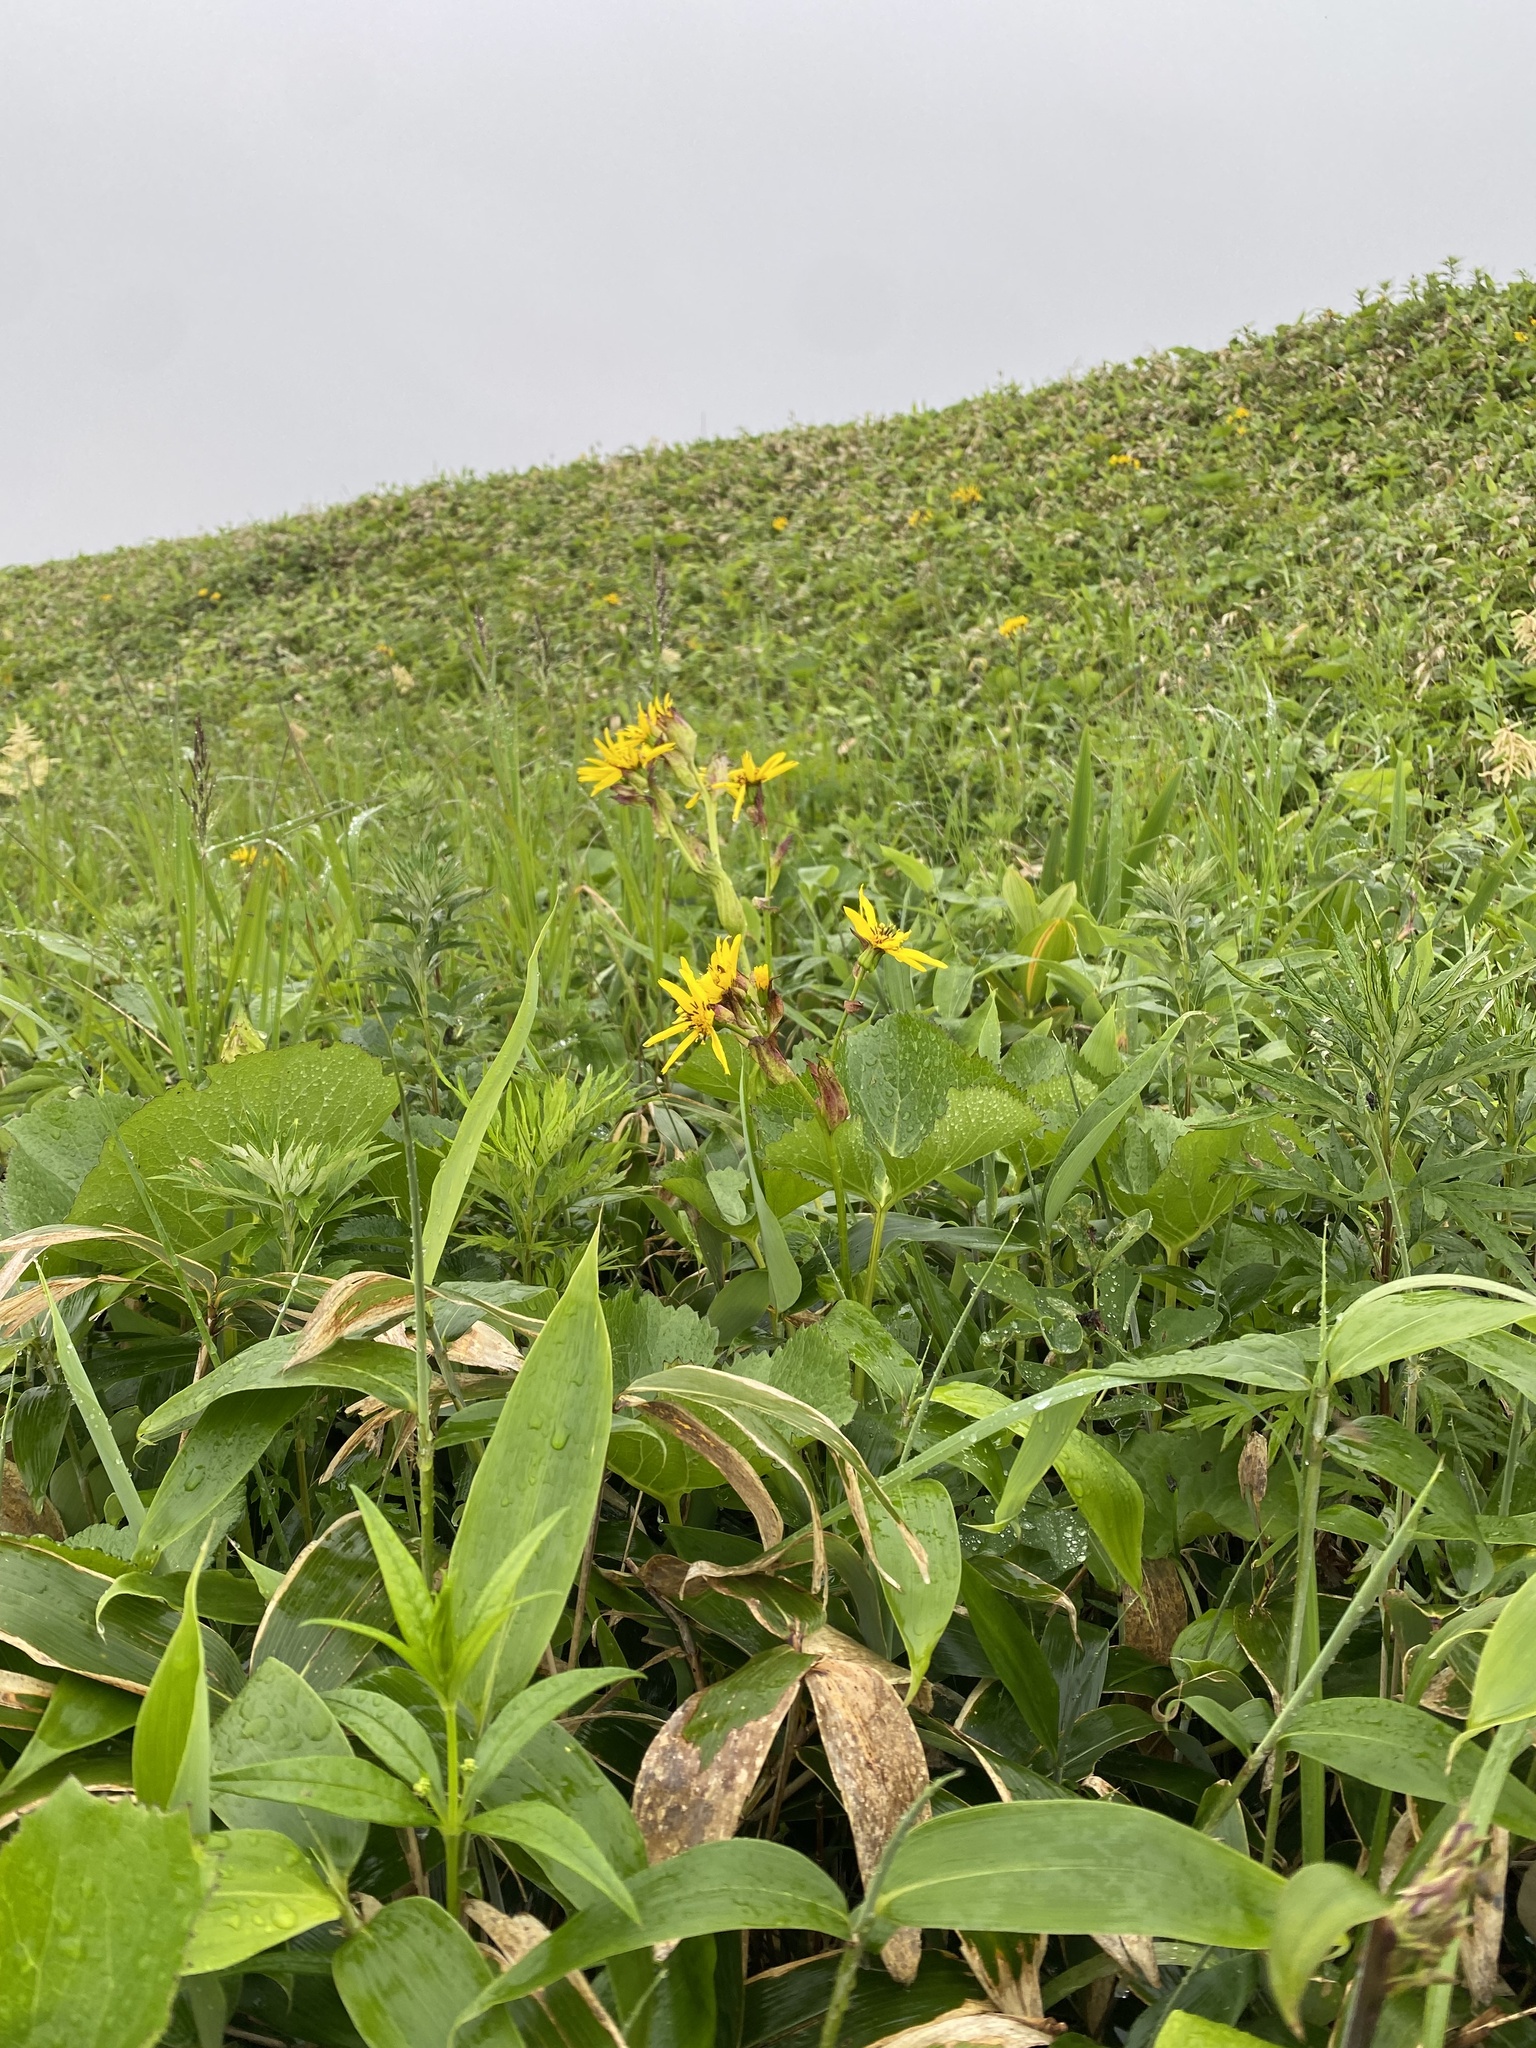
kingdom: Plantae
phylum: Tracheophyta
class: Magnoliopsida
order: Asterales
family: Asteraceae
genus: Ligularia
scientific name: Ligularia hodgsonii
